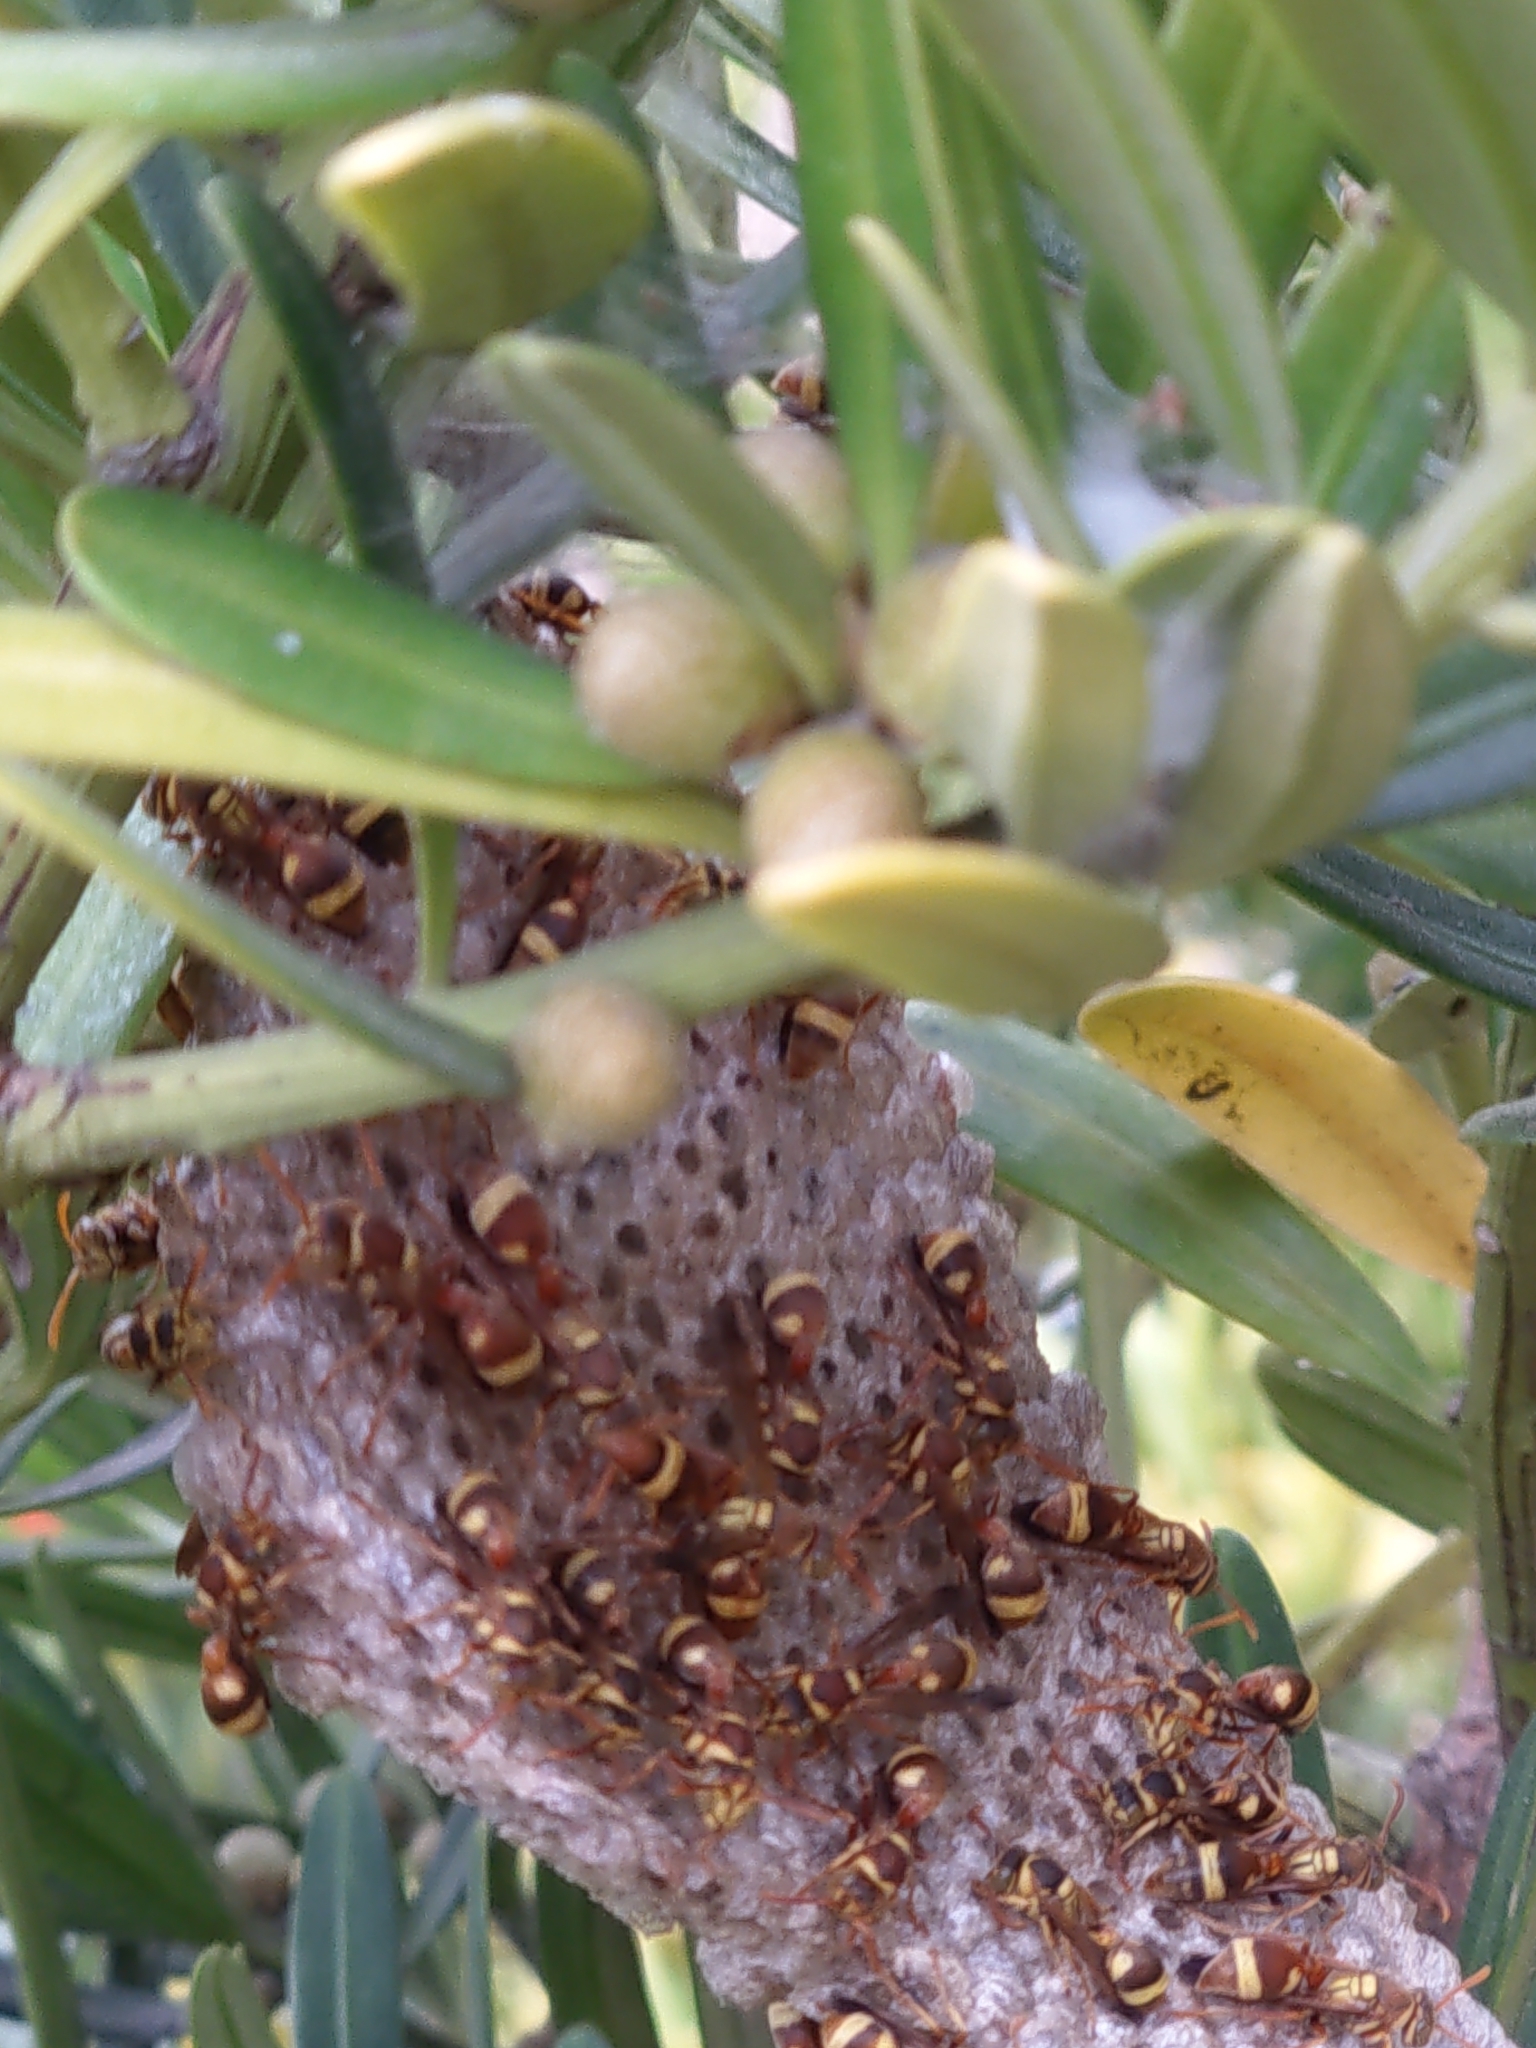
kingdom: Animalia
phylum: Arthropoda
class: Insecta
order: Hymenoptera
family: Vespidae
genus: Ropalidia
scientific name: Ropalidia fasciata
